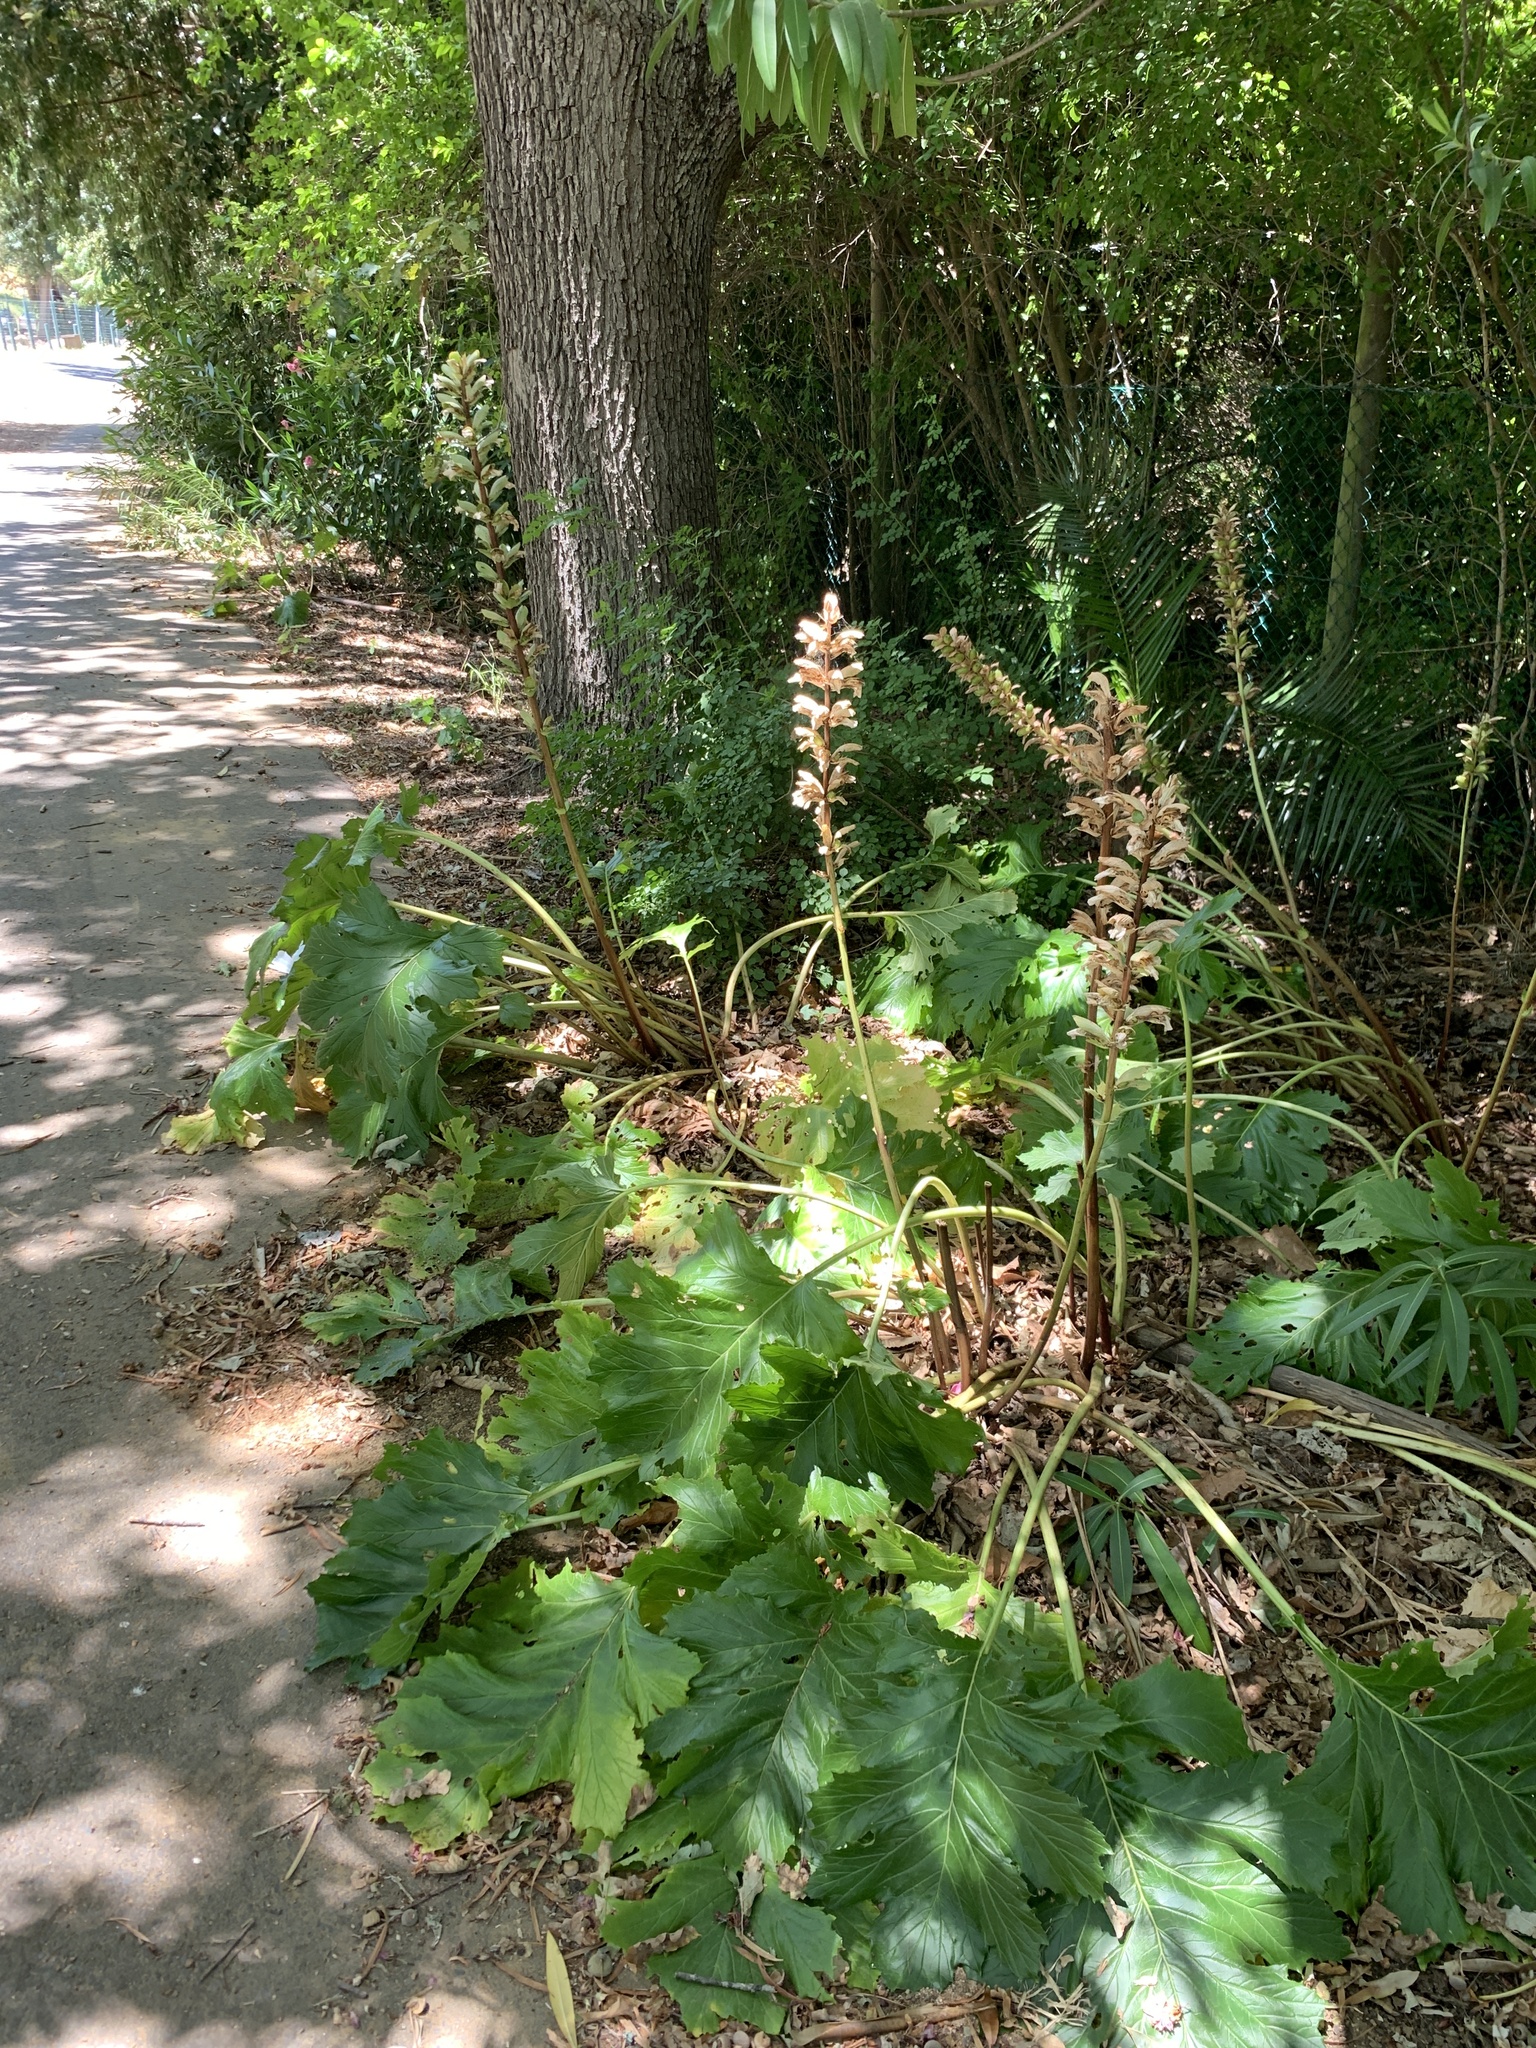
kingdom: Plantae
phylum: Tracheophyta
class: Magnoliopsida
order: Lamiales
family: Acanthaceae
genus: Acanthus
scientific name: Acanthus mollis
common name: Bear's-breech
